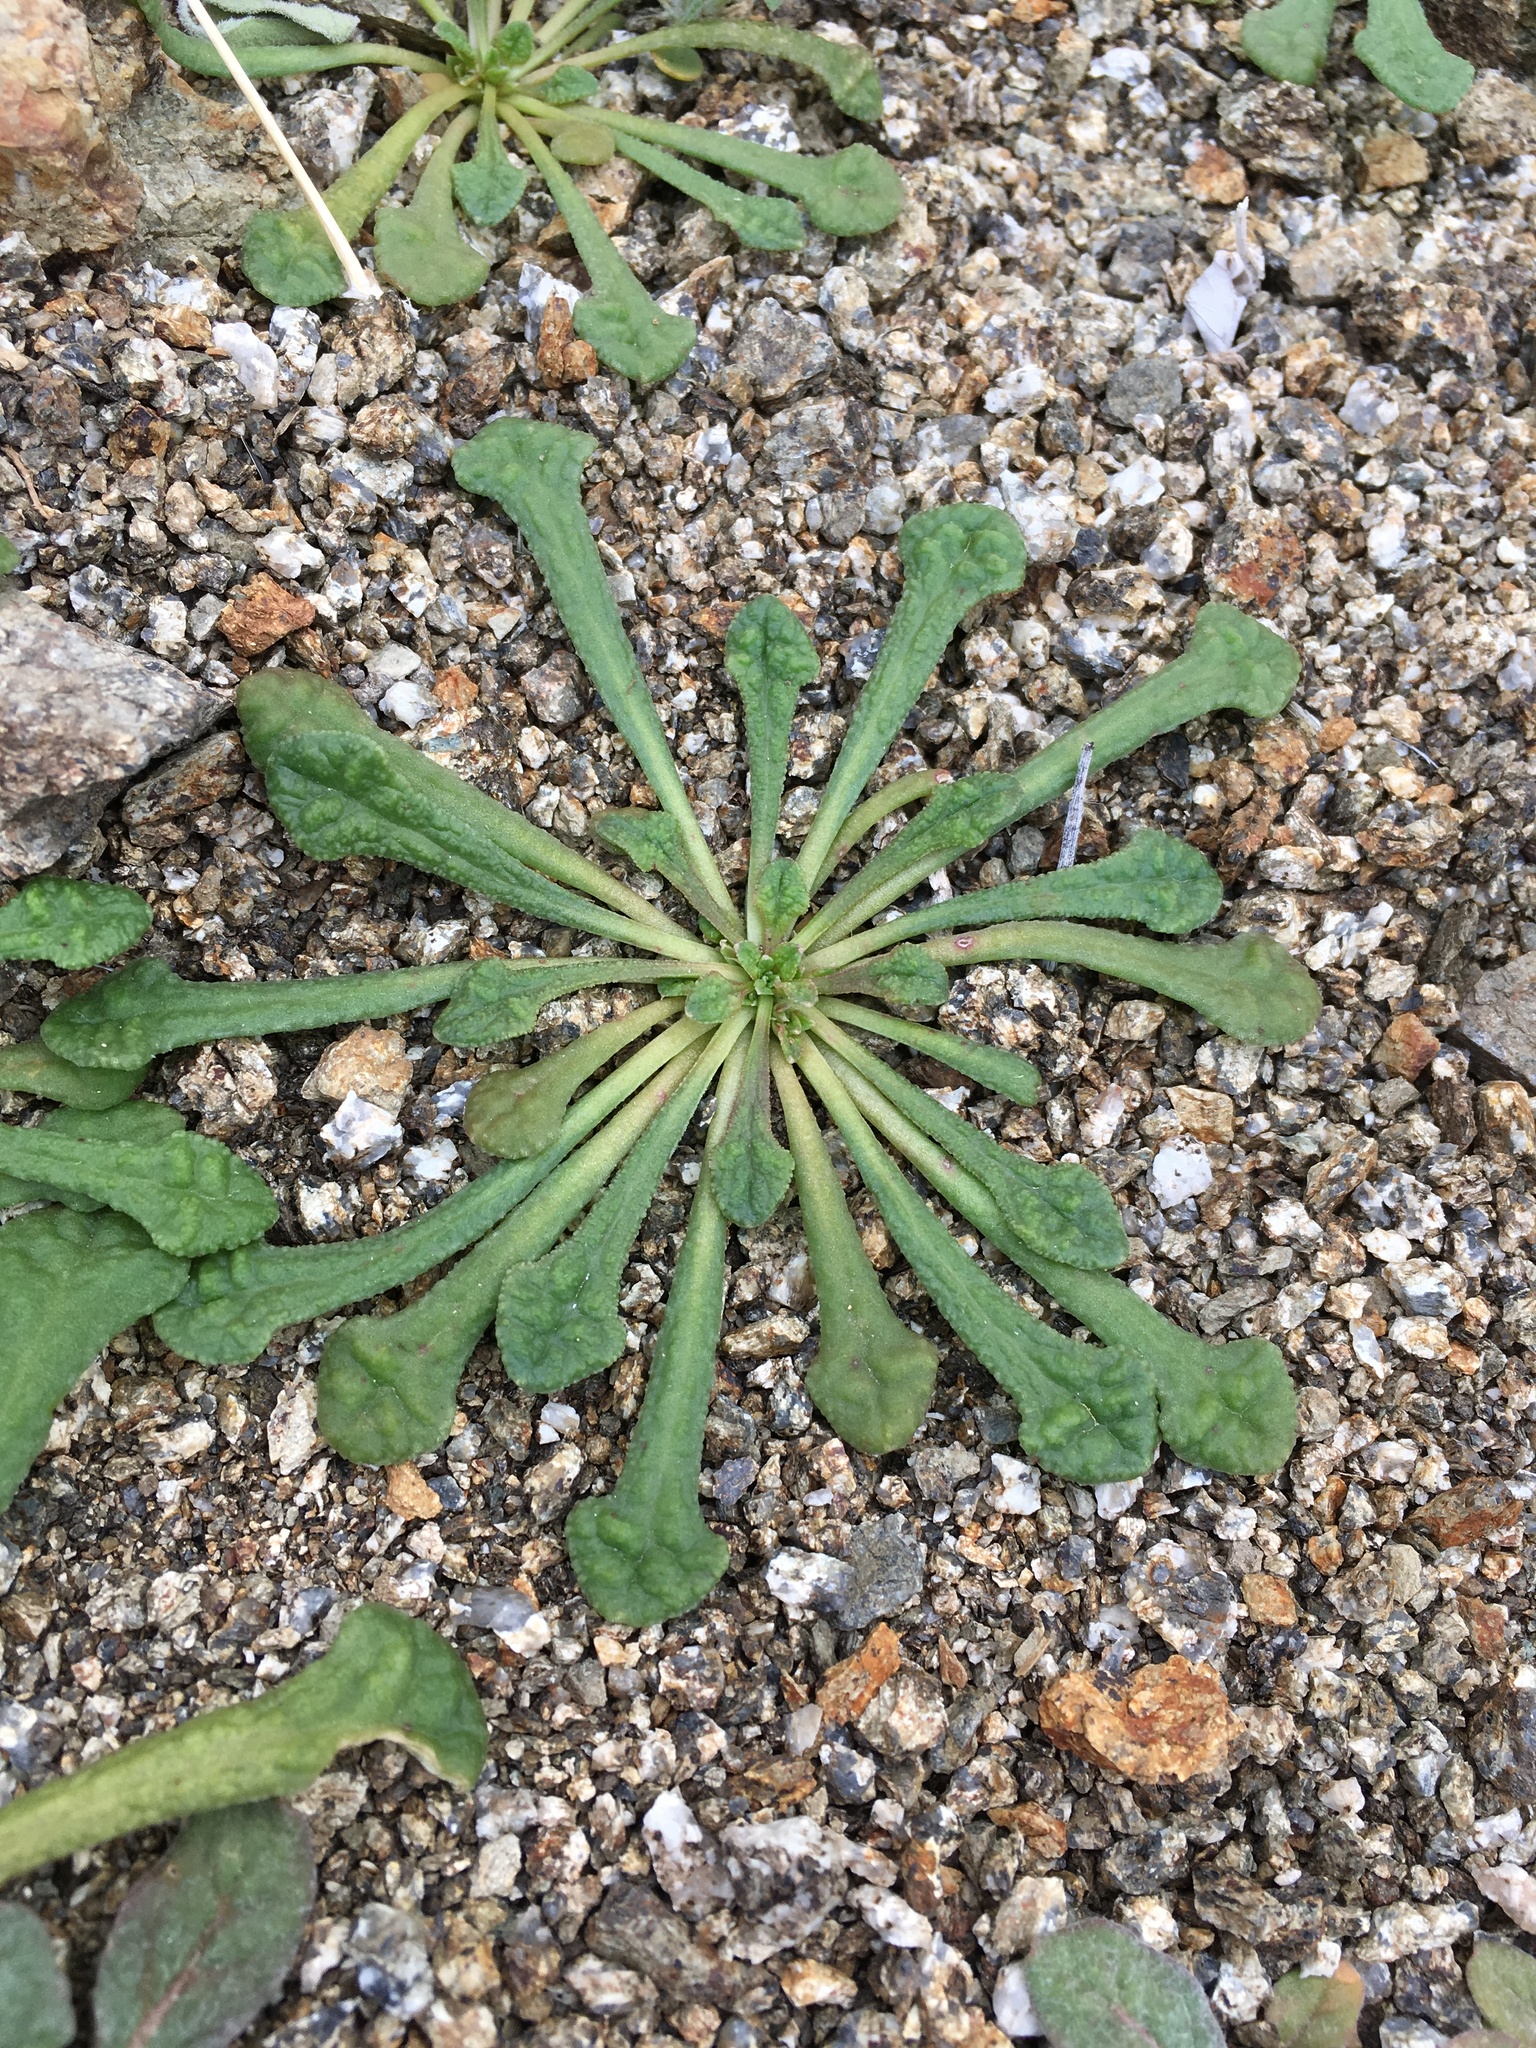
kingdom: Plantae
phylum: Tracheophyta
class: Magnoliopsida
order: Caryophyllales
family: Montiaceae
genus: Calyptridium
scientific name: Calyptridium monandrum
